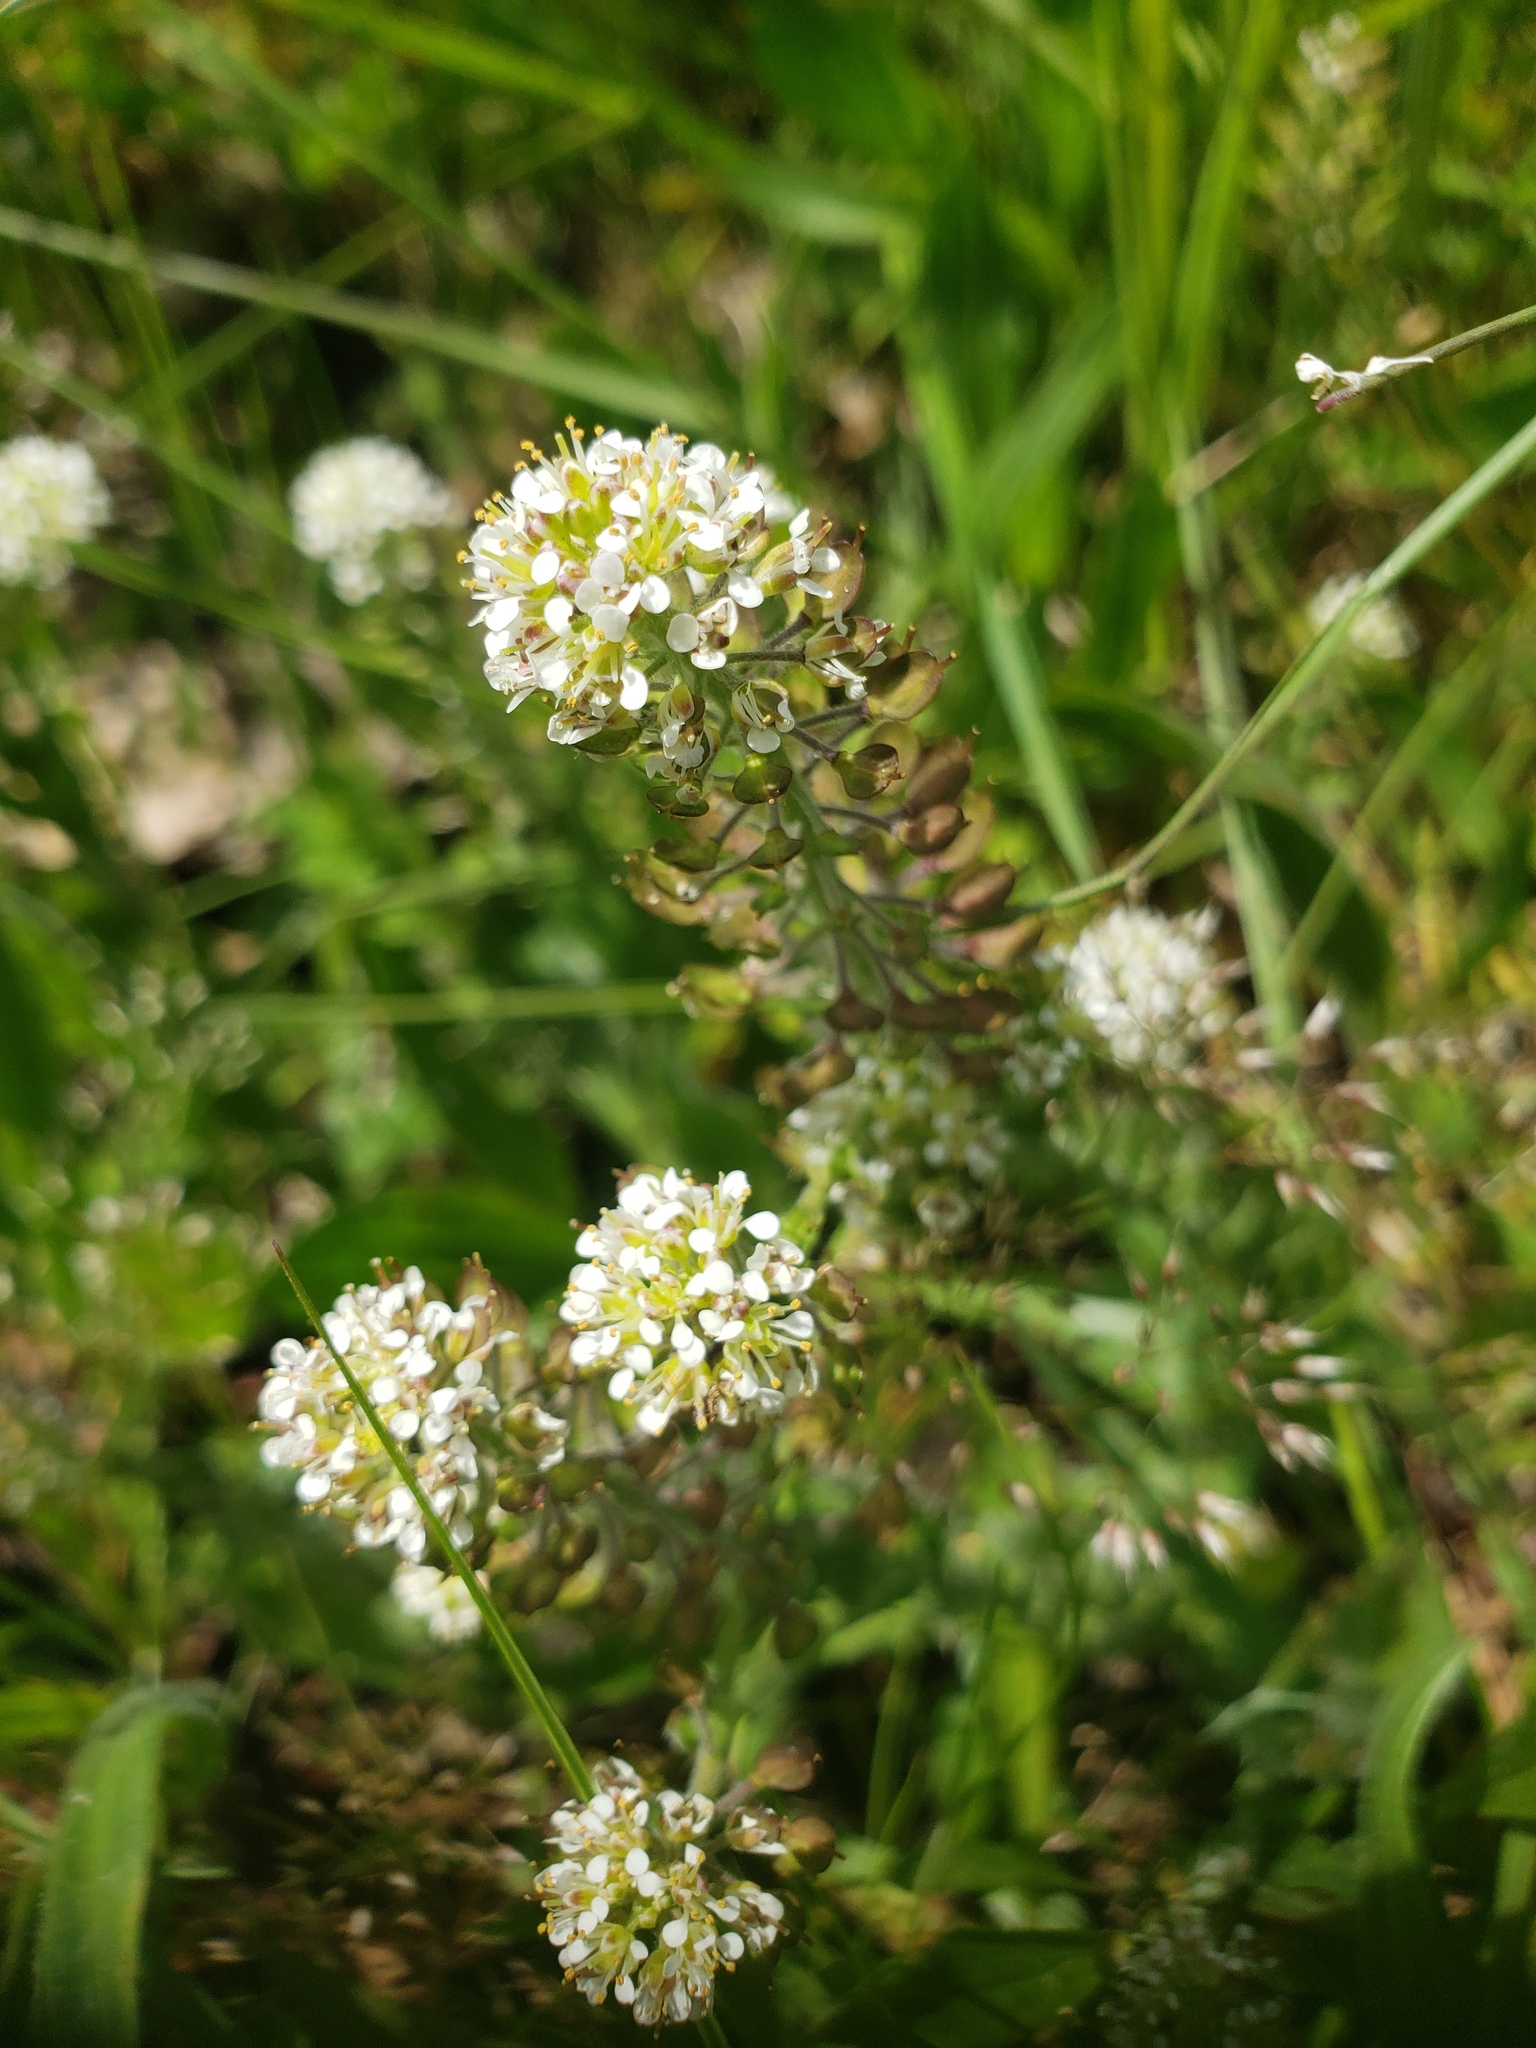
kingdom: Plantae
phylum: Tracheophyta
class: Magnoliopsida
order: Brassicales
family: Brassicaceae
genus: Lepidium
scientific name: Lepidium heterophyllum
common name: Smith's pepperwort
